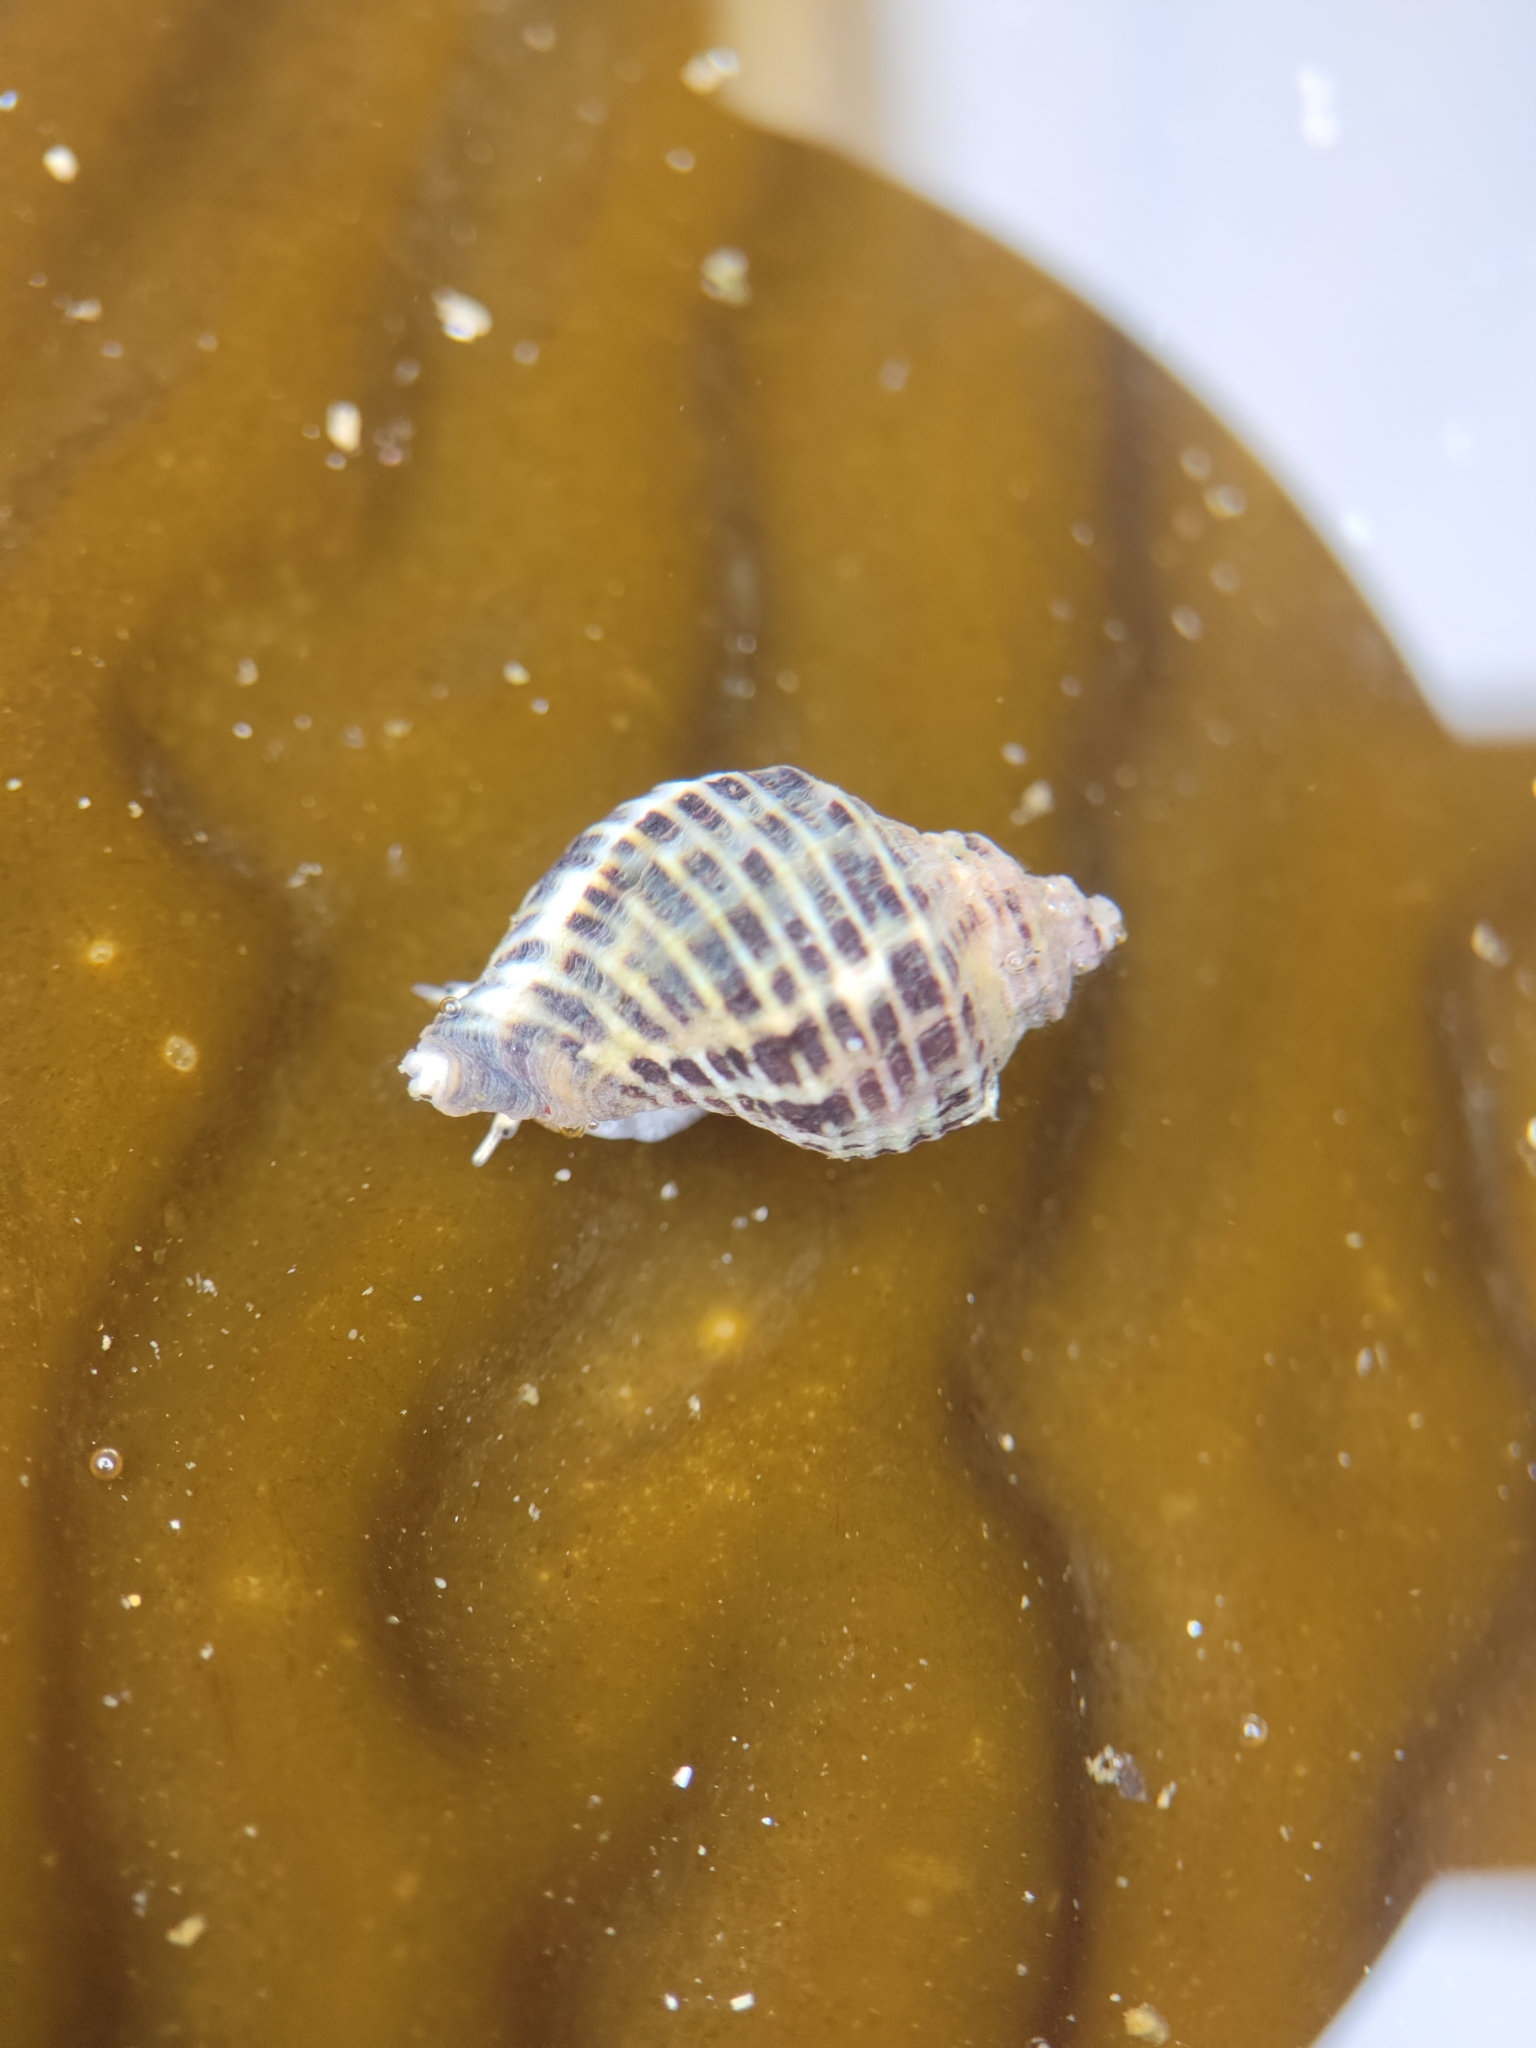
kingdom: Animalia
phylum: Mollusca
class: Gastropoda
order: Neogastropoda
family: Muricidae
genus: Acanthinucella
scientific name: Acanthinucella spirata
